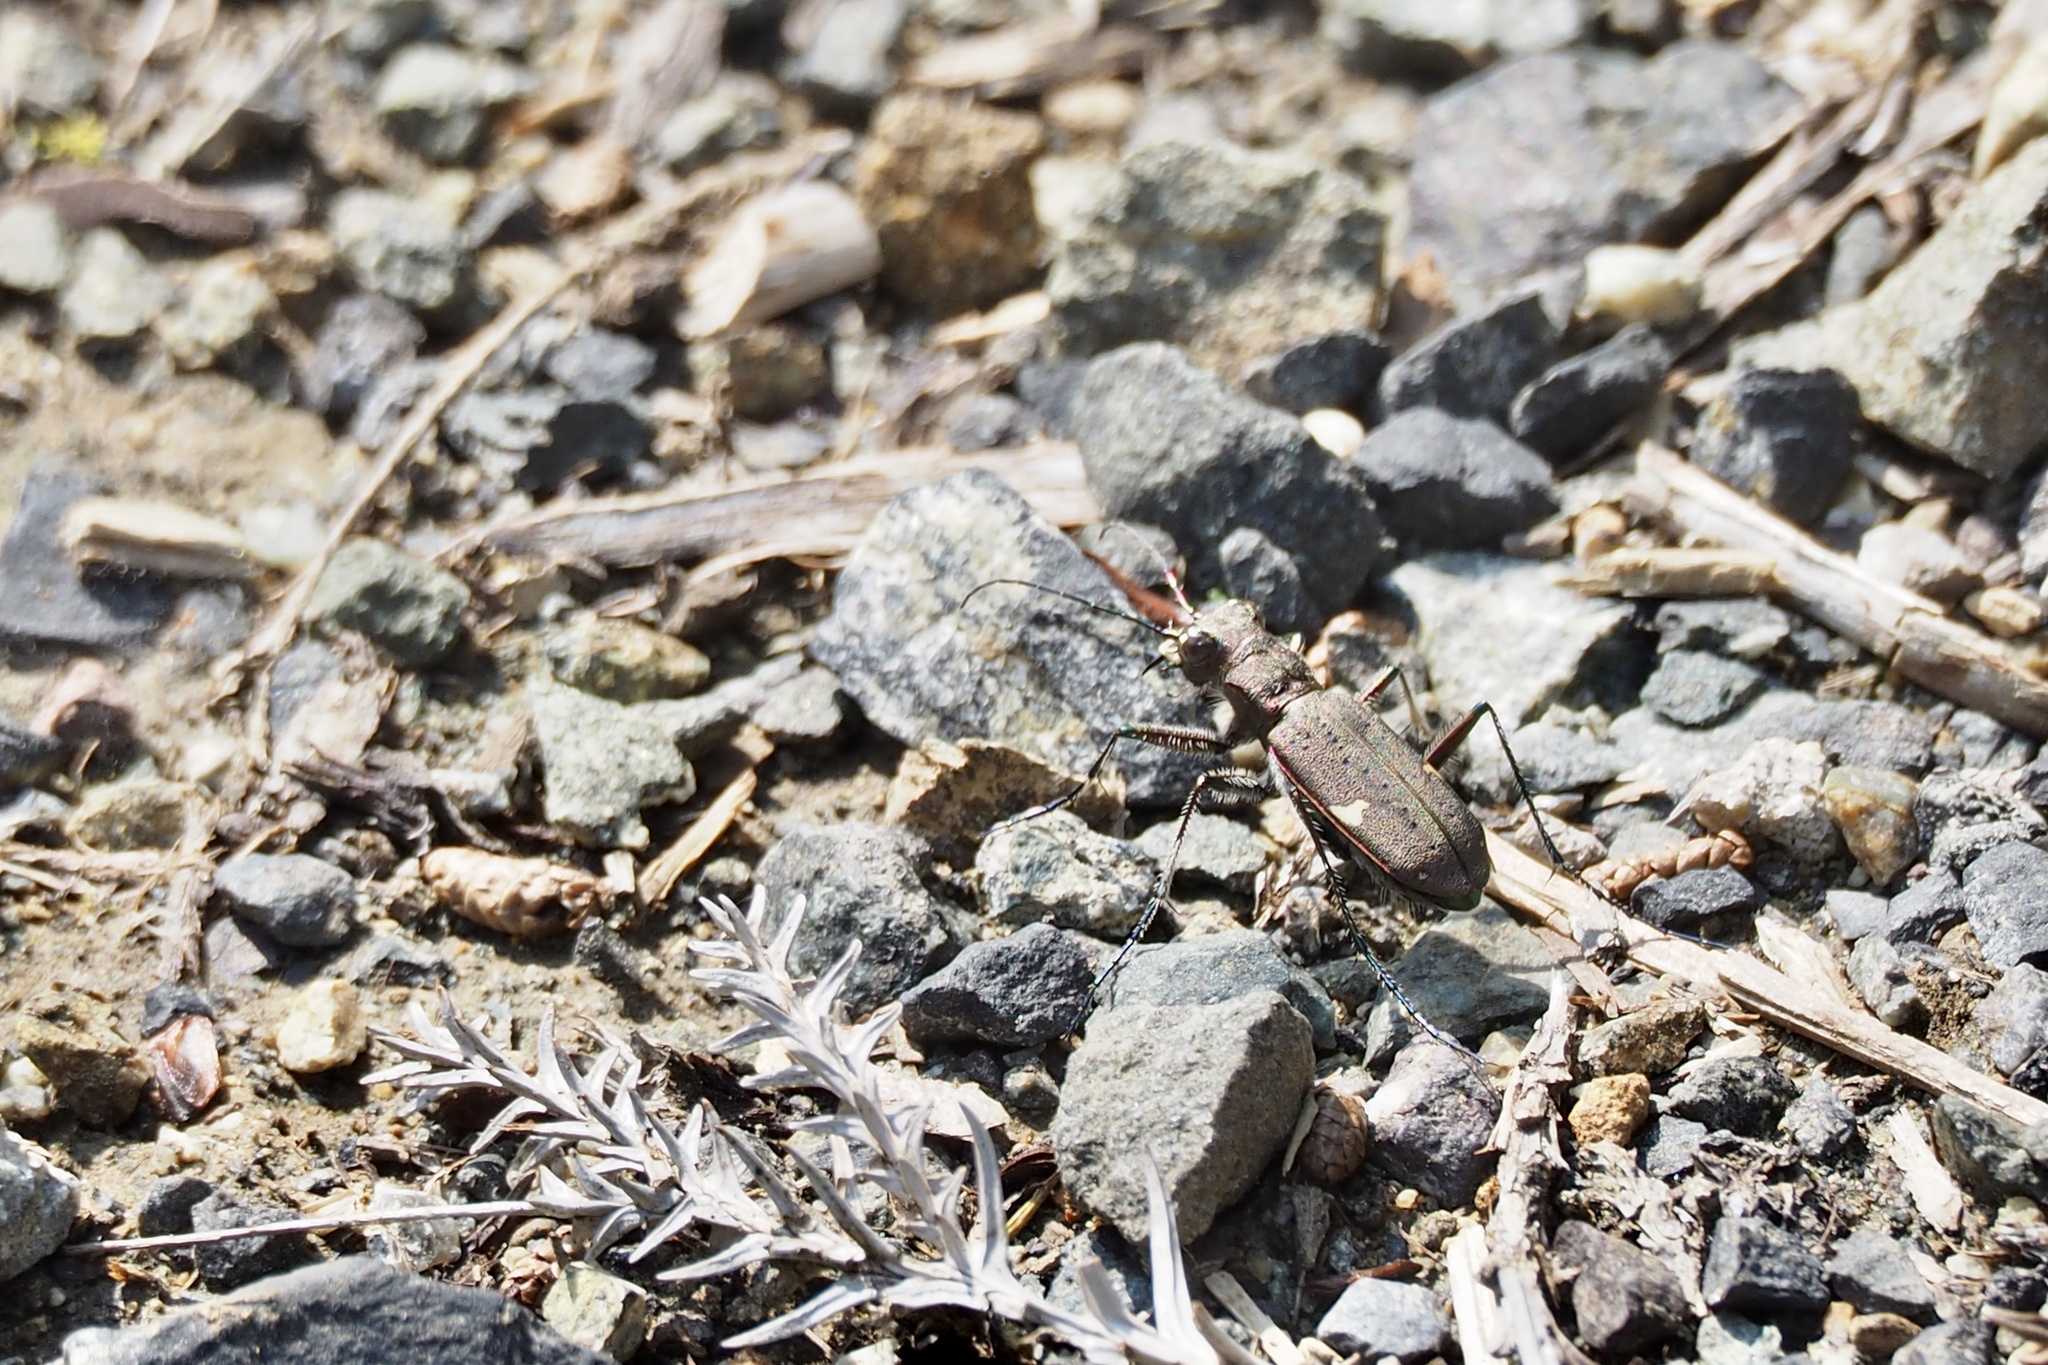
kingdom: Animalia
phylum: Arthropoda
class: Insecta
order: Coleoptera
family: Carabidae
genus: Cicindela
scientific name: Cicindela japana
